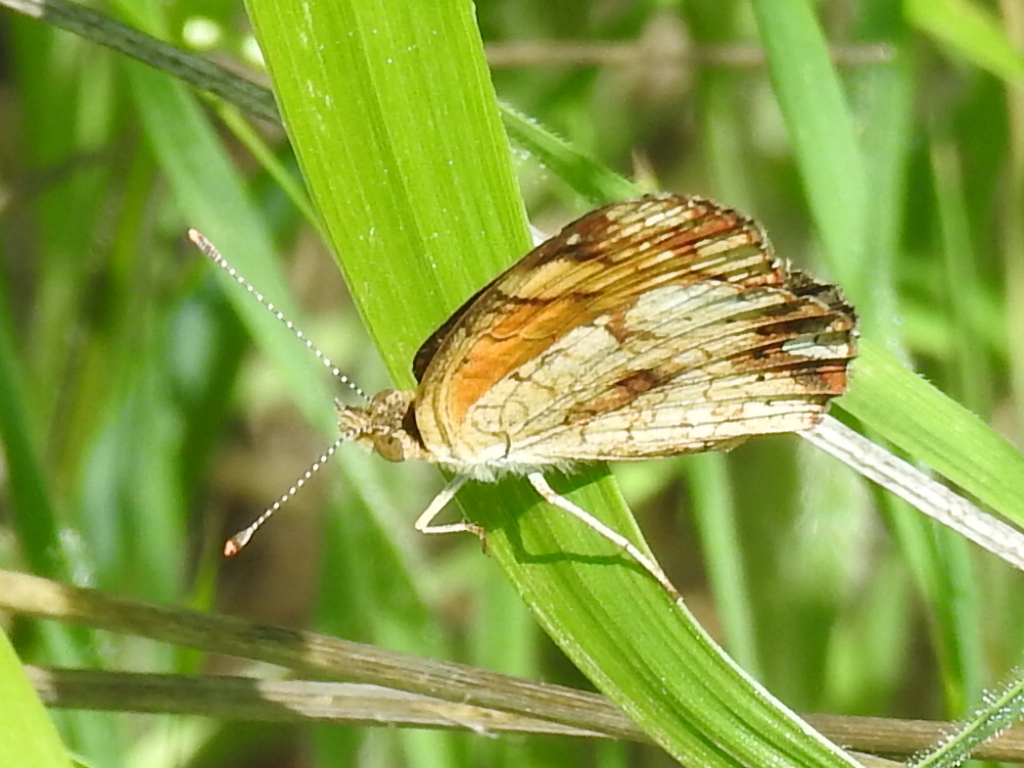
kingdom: Animalia
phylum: Arthropoda
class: Insecta
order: Lepidoptera
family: Nymphalidae
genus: Phyciodes
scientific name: Phyciodes tharos
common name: Pearl crescent
